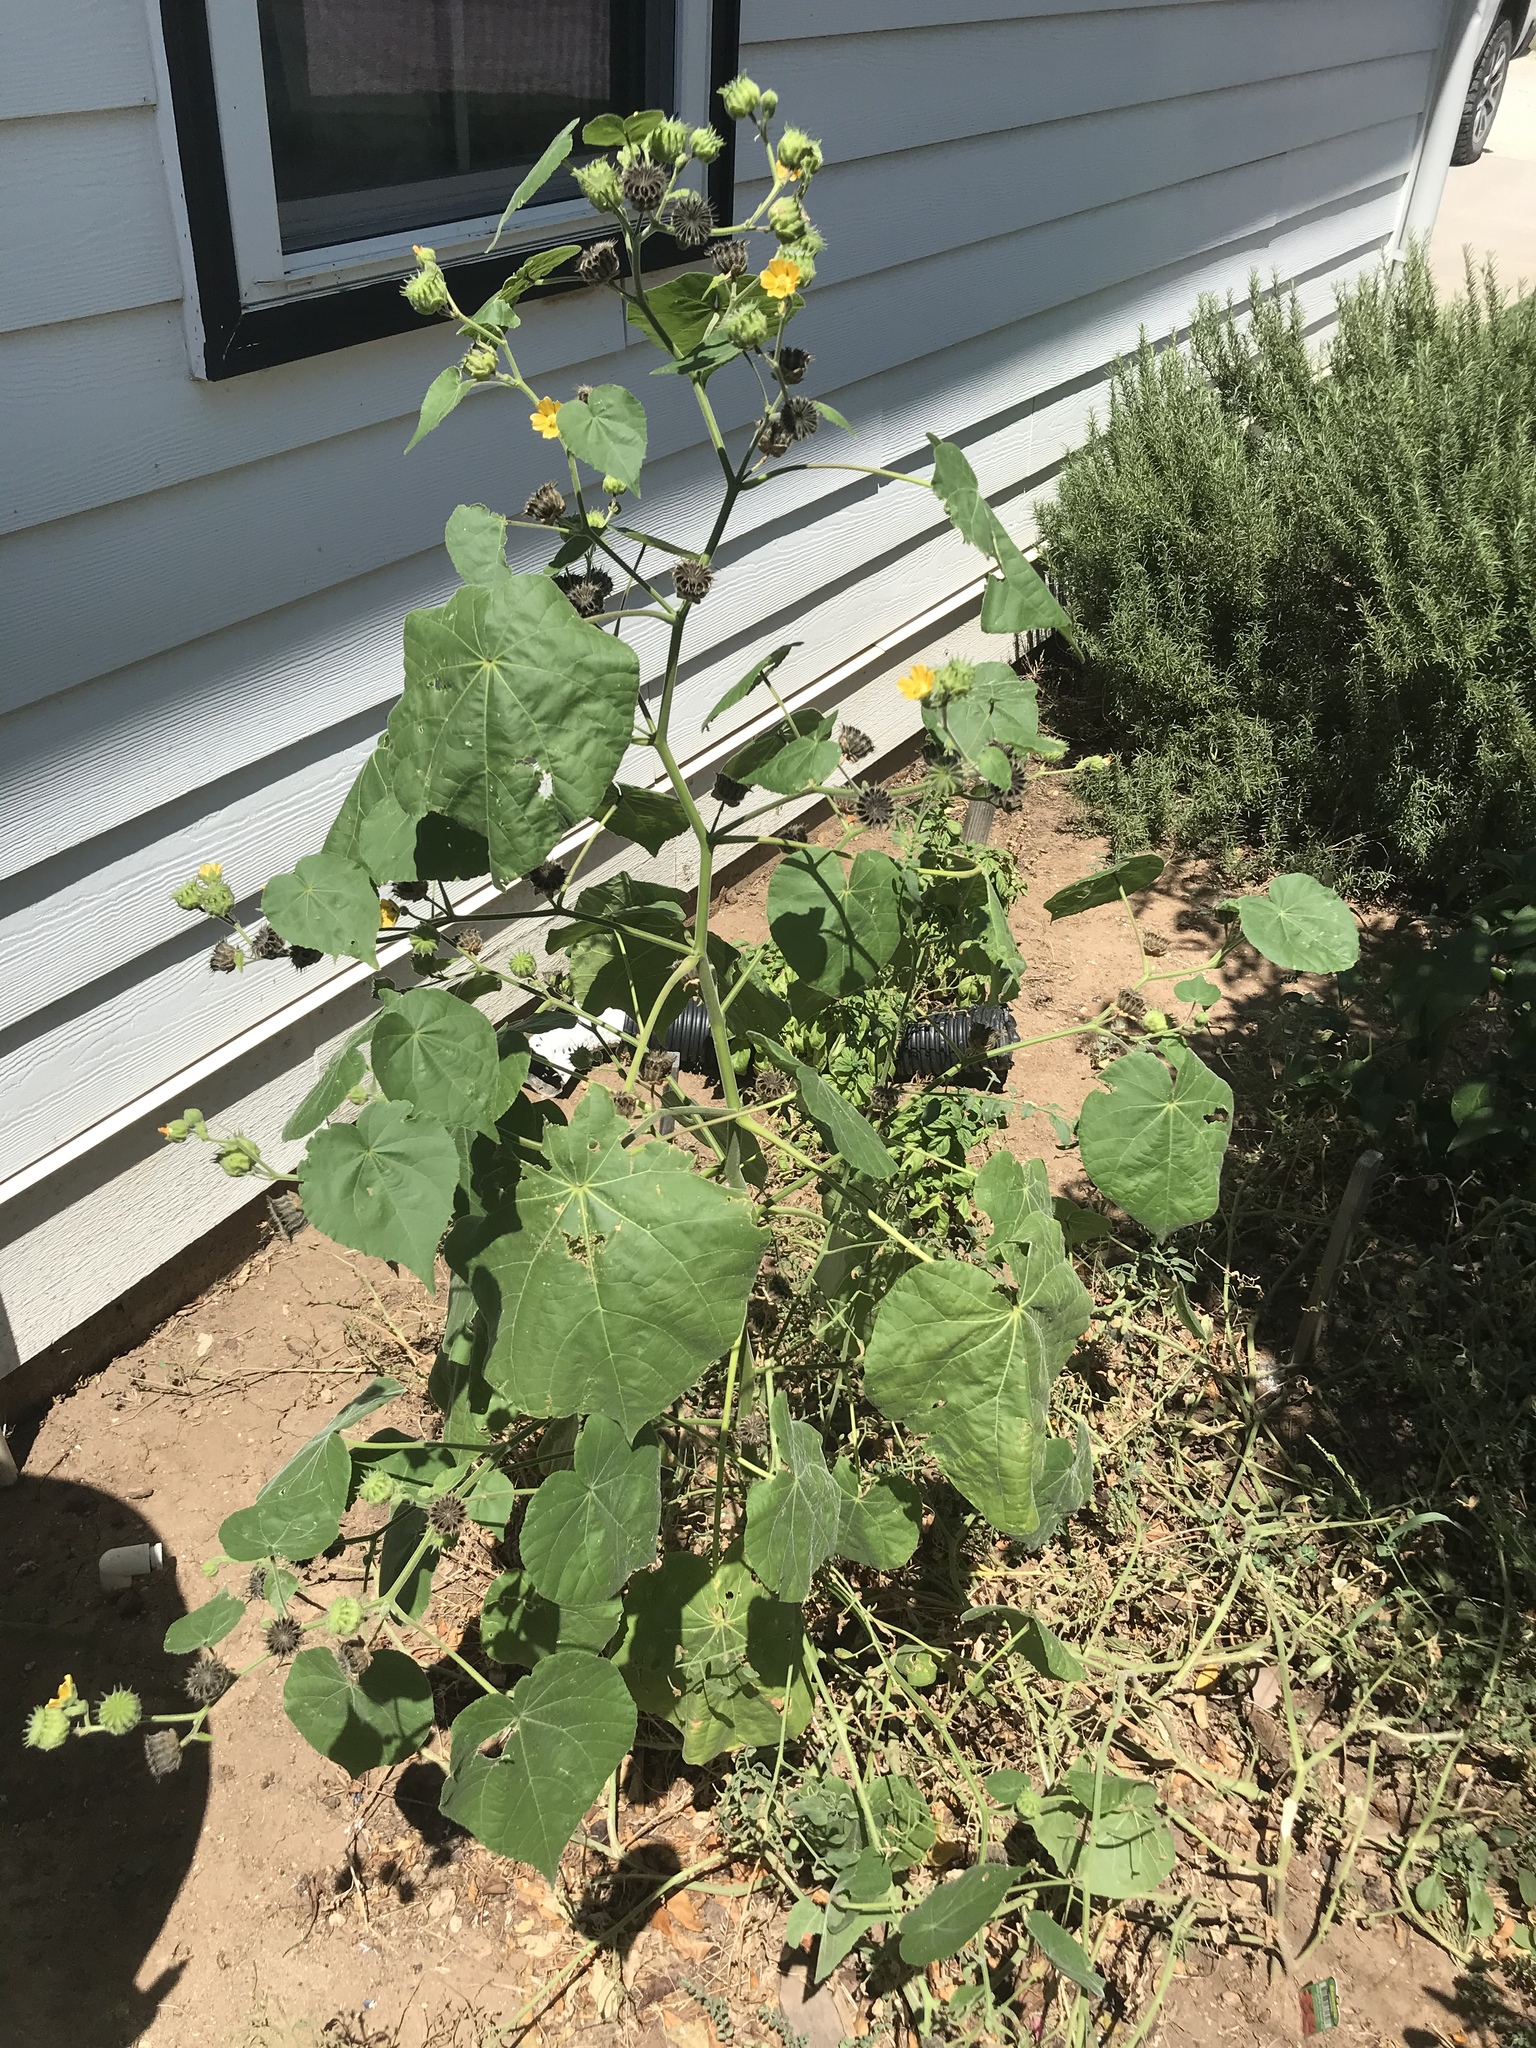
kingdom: Plantae
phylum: Tracheophyta
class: Magnoliopsida
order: Malvales
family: Malvaceae
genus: Abutilon
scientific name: Abutilon theophrasti
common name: Velvetleaf
